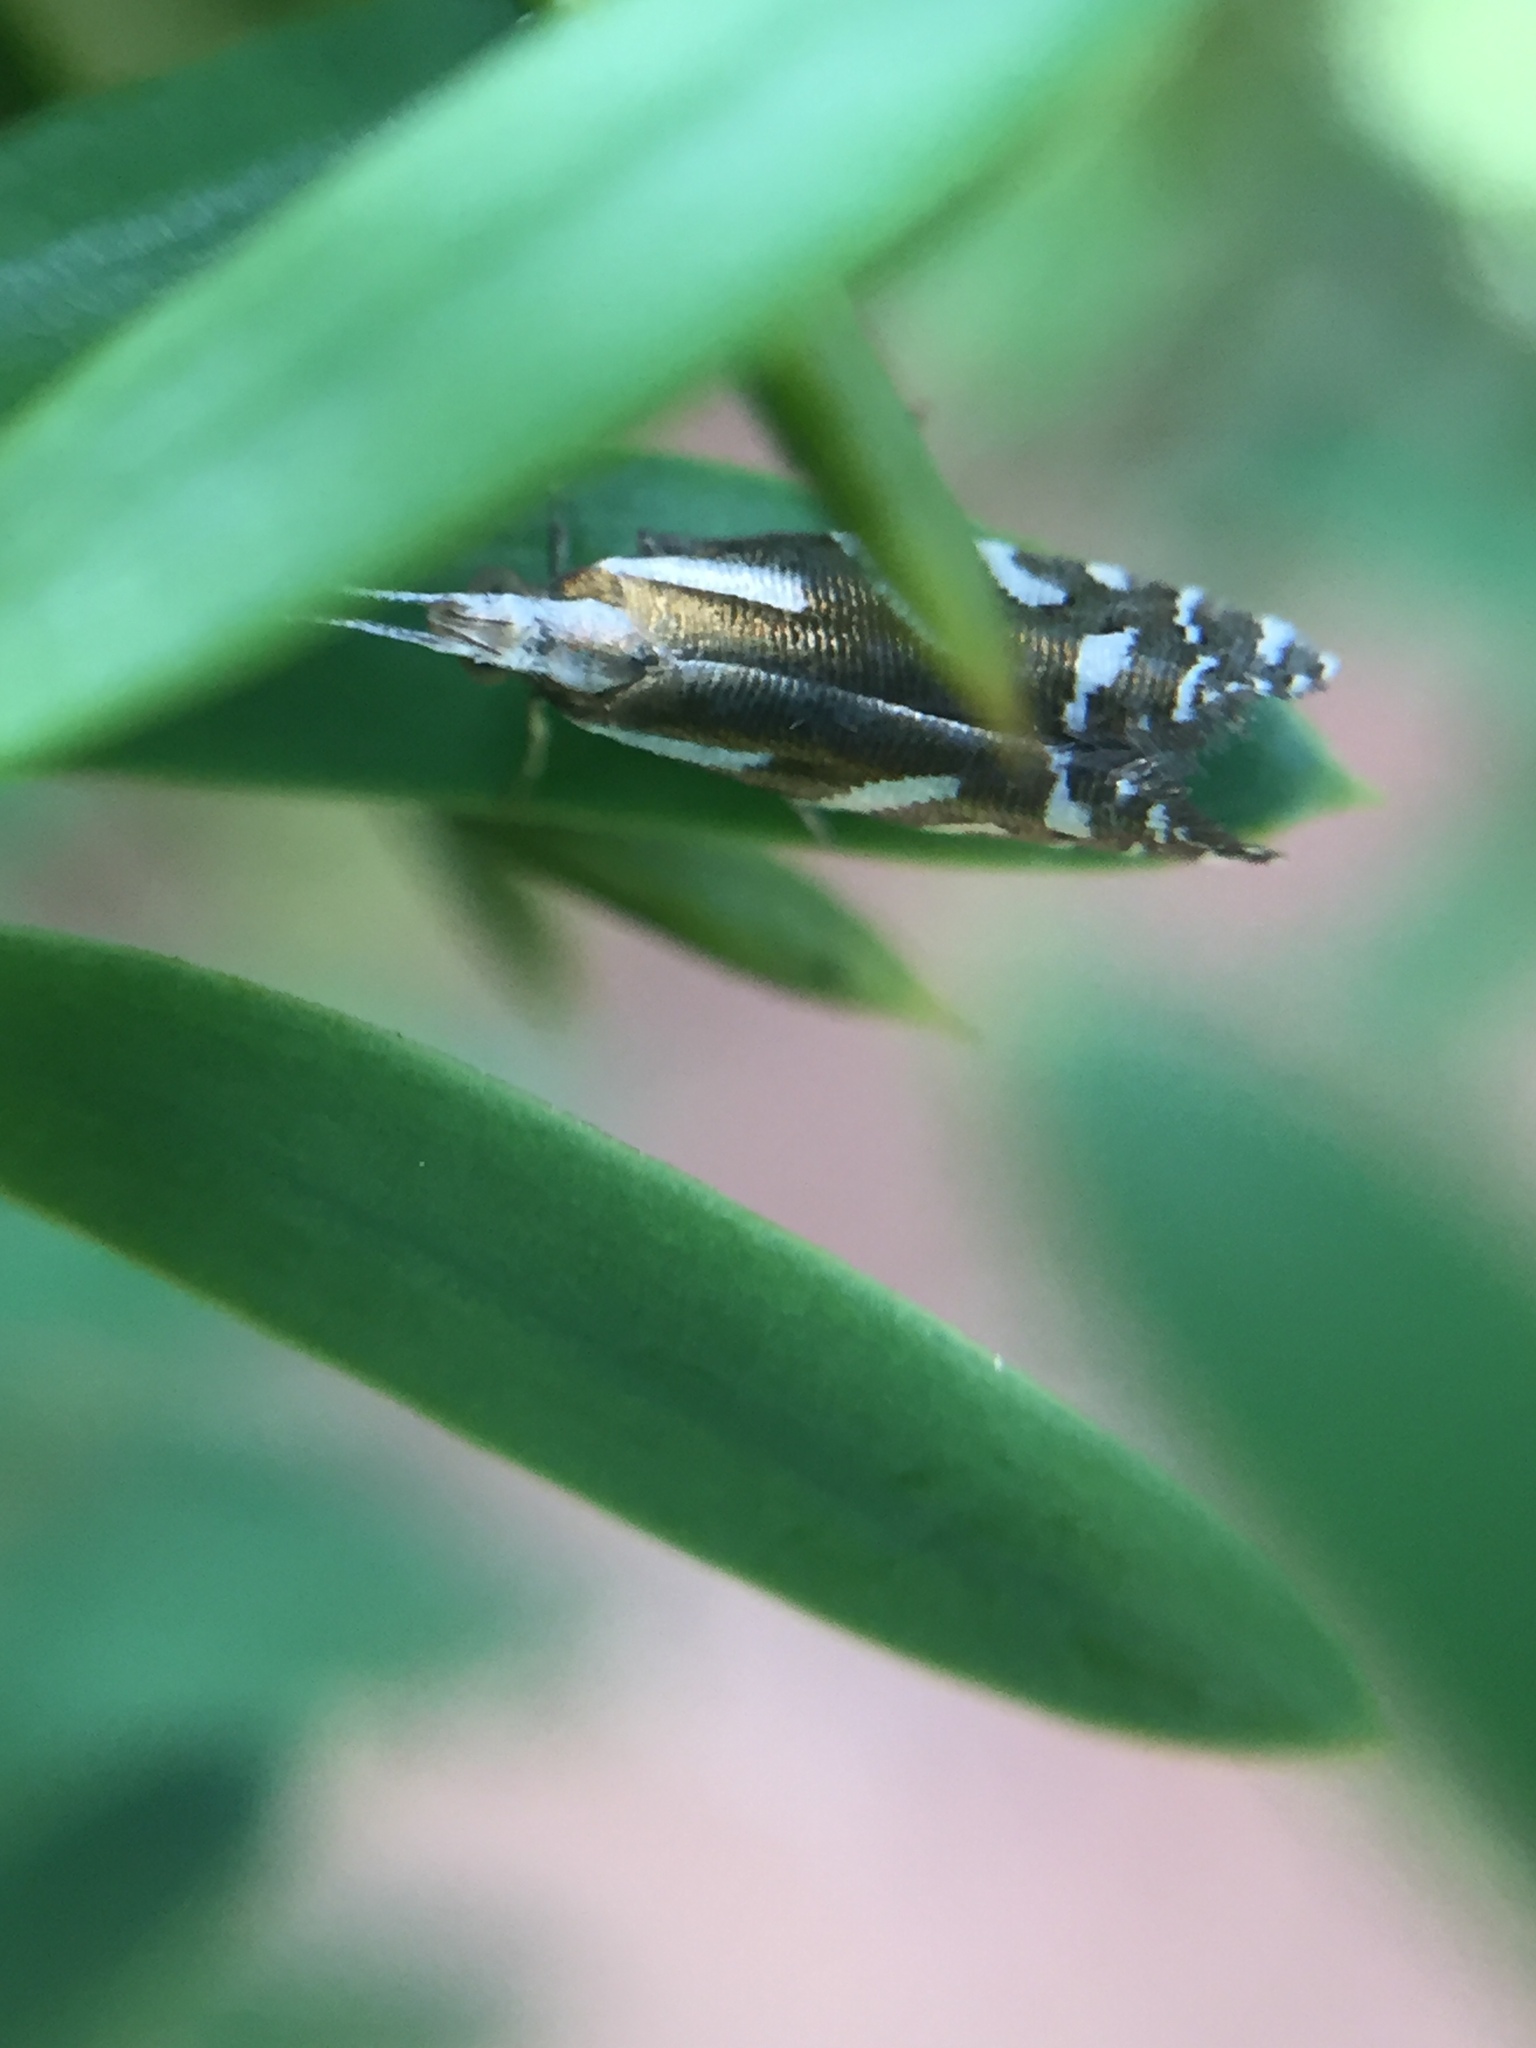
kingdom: Animalia
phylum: Arthropoda
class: Insecta
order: Lepidoptera
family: Glyphipterigidae
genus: Chrysorthenches
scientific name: Chrysorthenches glypharcha
